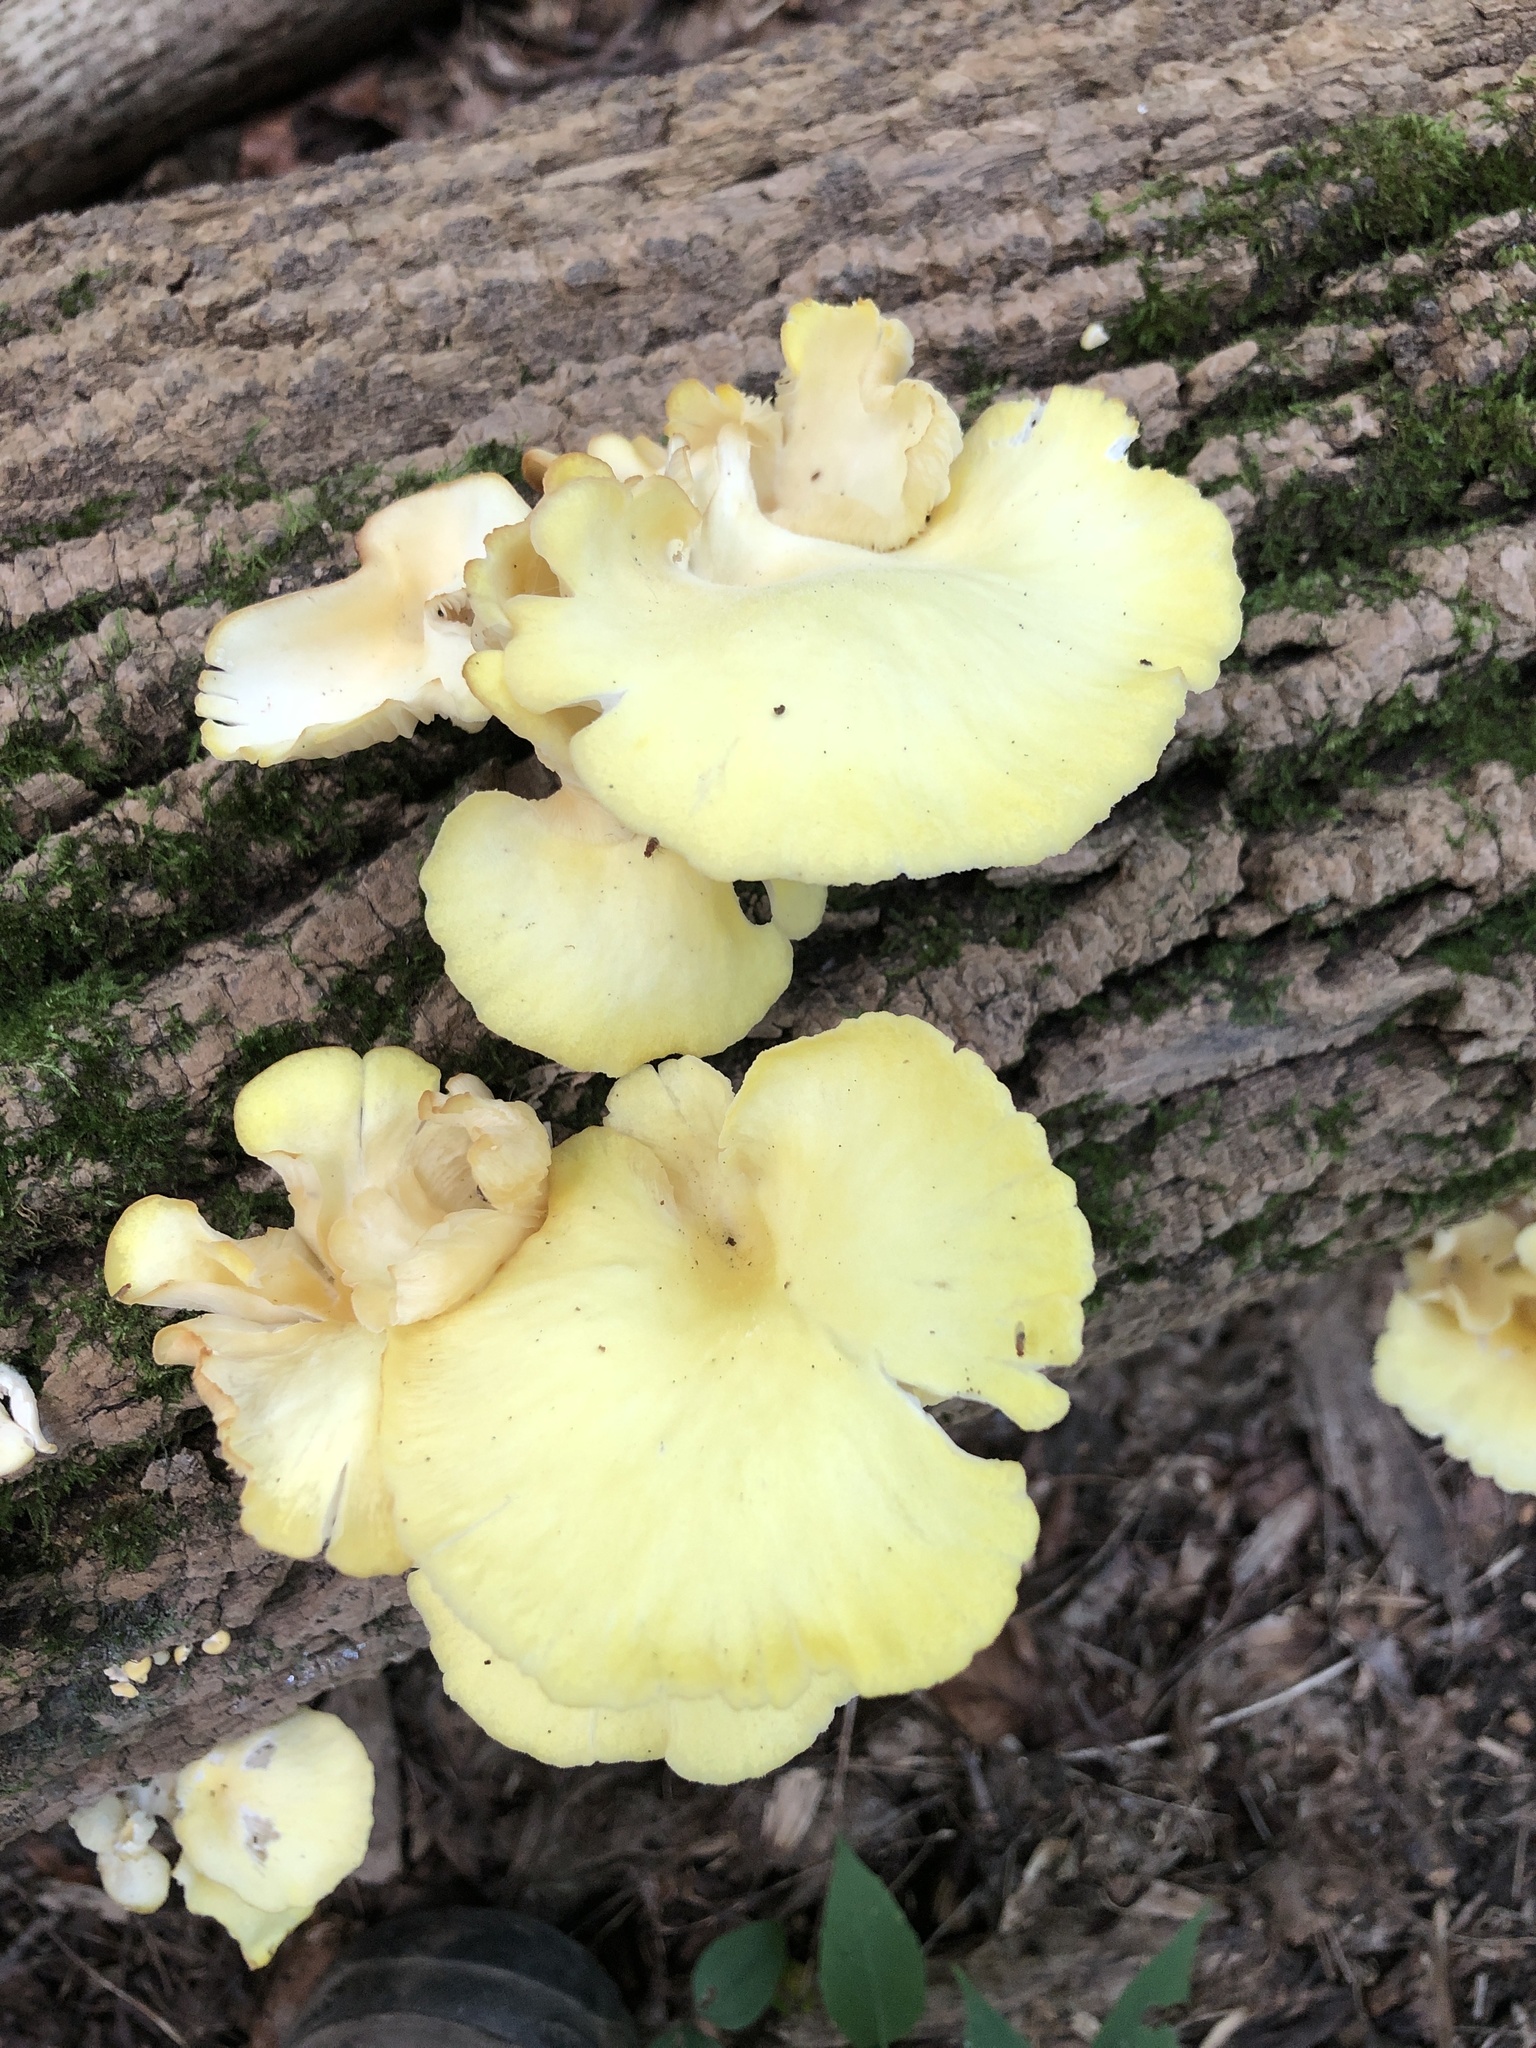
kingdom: Fungi
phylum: Basidiomycota
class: Agaricomycetes
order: Agaricales
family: Pleurotaceae
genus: Pleurotus
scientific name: Pleurotus citrinopileatus
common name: Golden oyster mushroom
